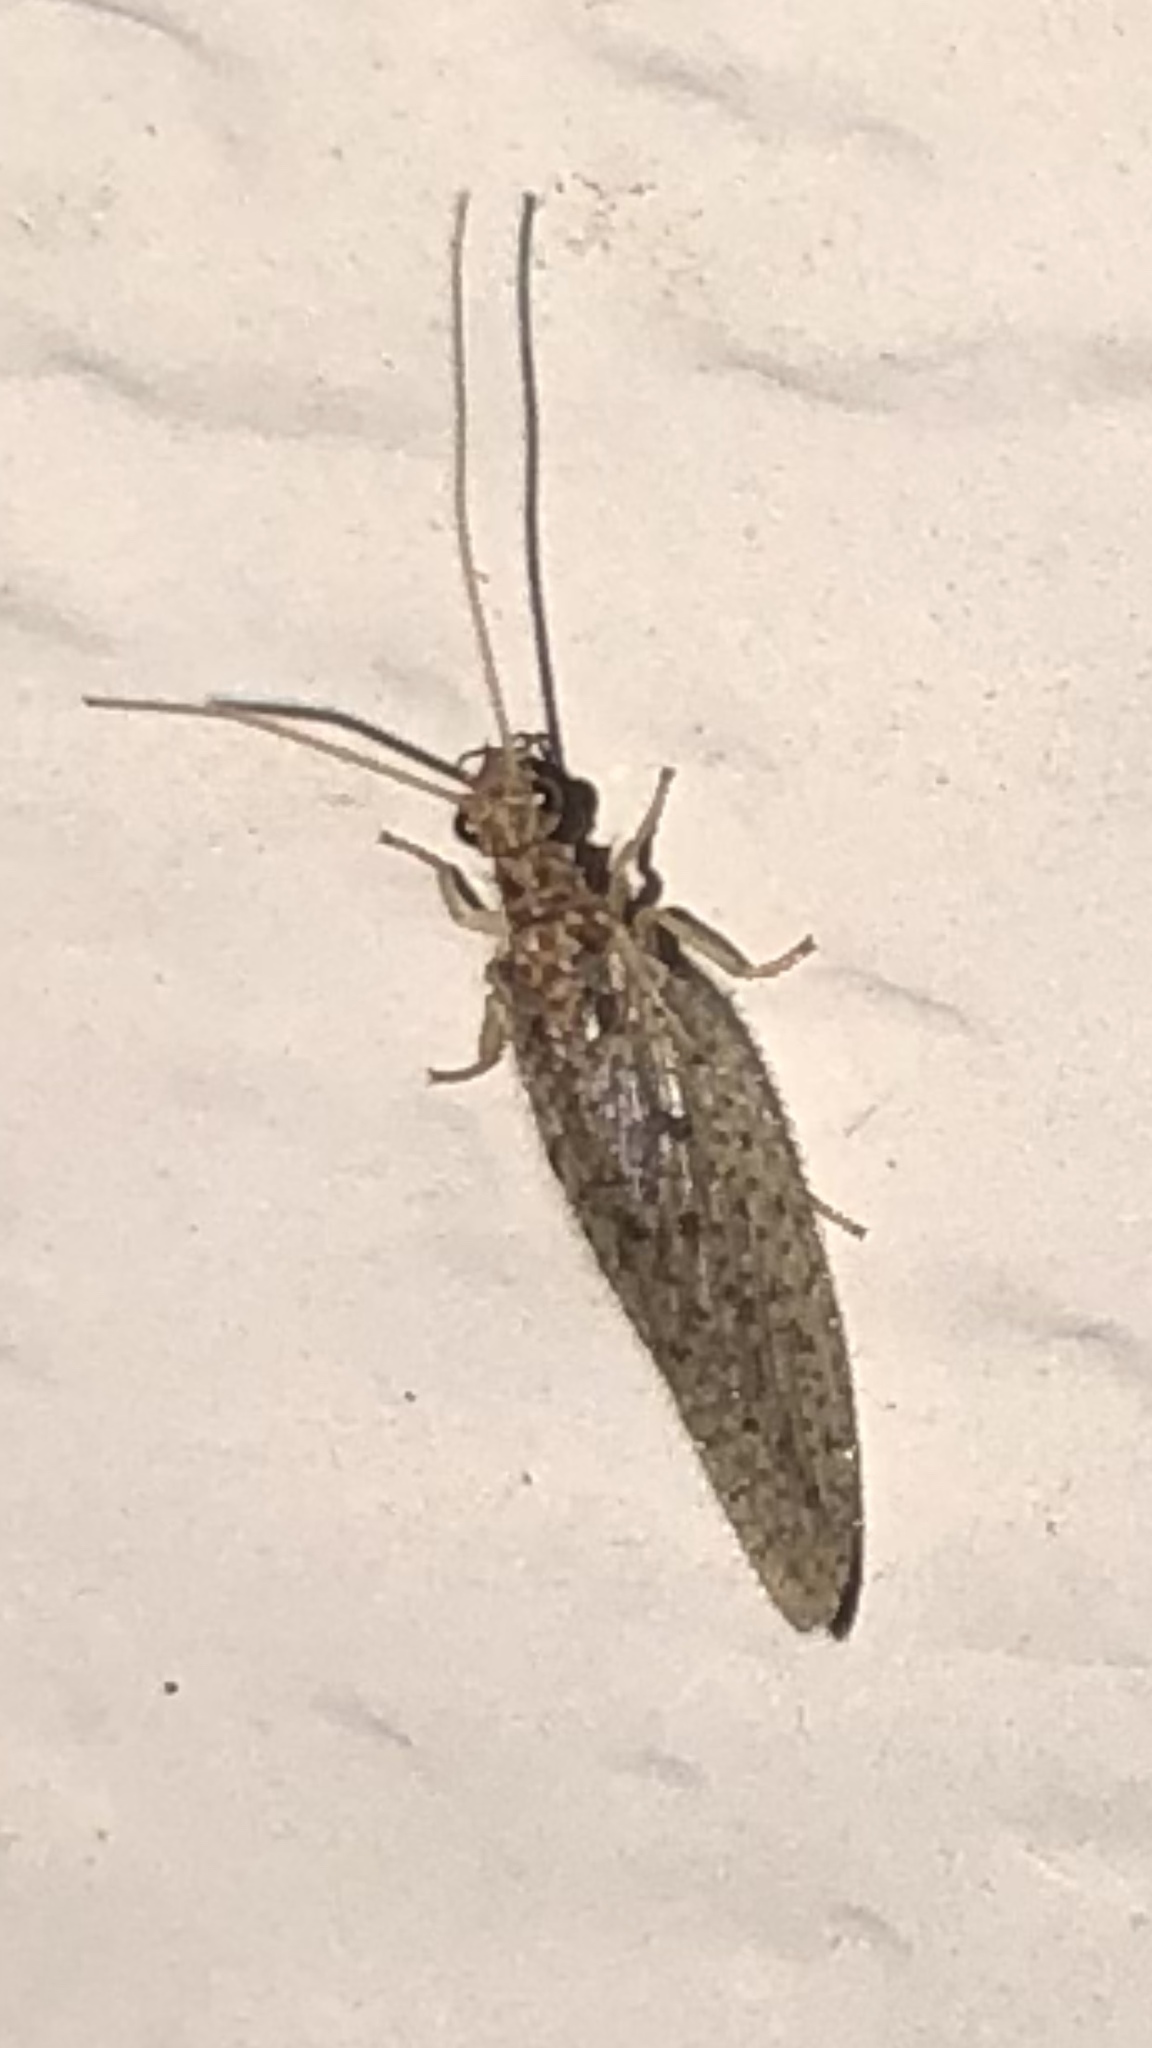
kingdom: Animalia
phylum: Arthropoda
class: Insecta
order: Neuroptera
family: Hemerobiidae
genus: Micromus
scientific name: Micromus subanticus
